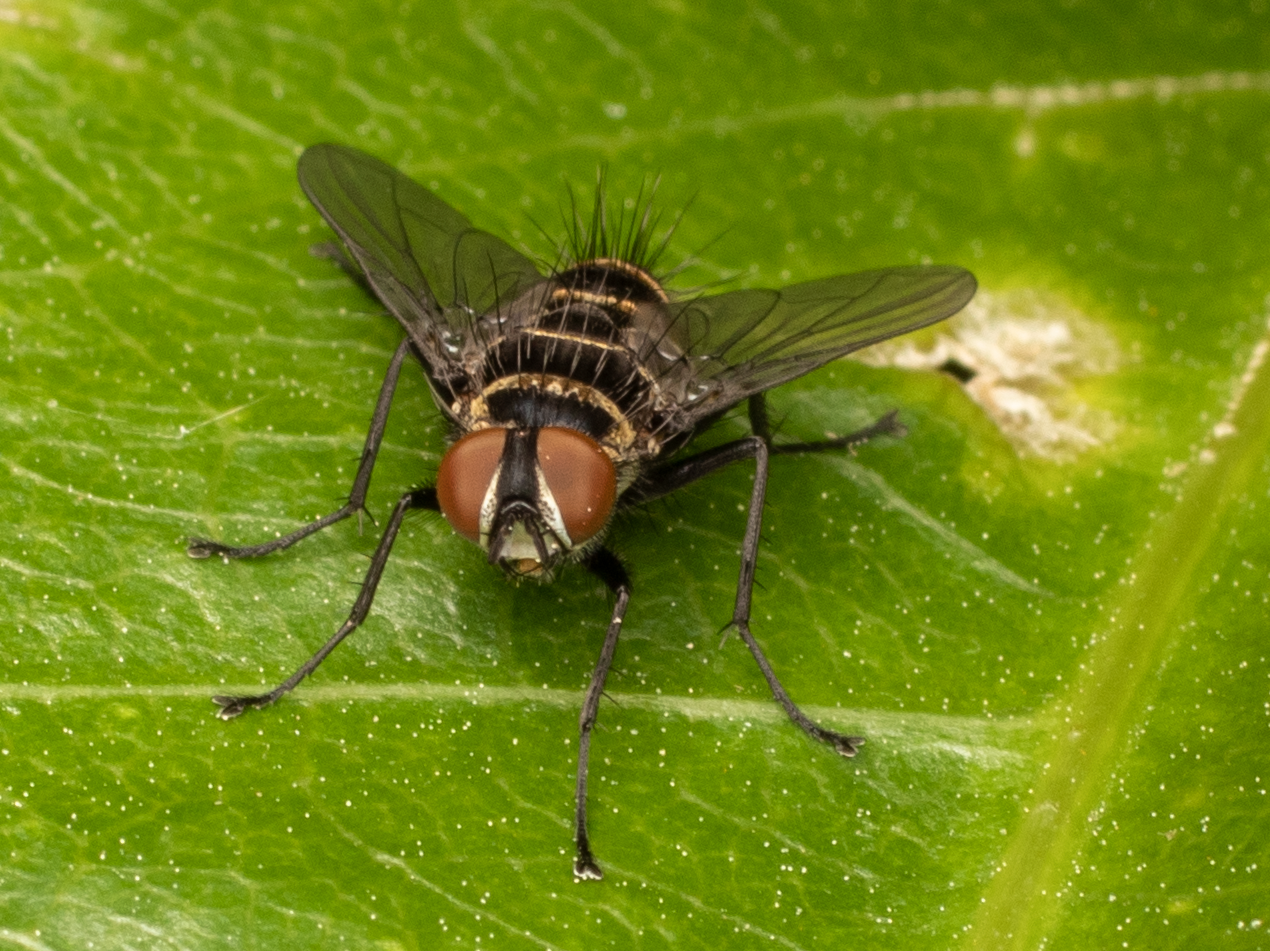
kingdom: Animalia
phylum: Arthropoda
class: Insecta
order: Diptera
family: Tachinidae
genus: Trigonospila
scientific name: Trigonospila brevifacies
